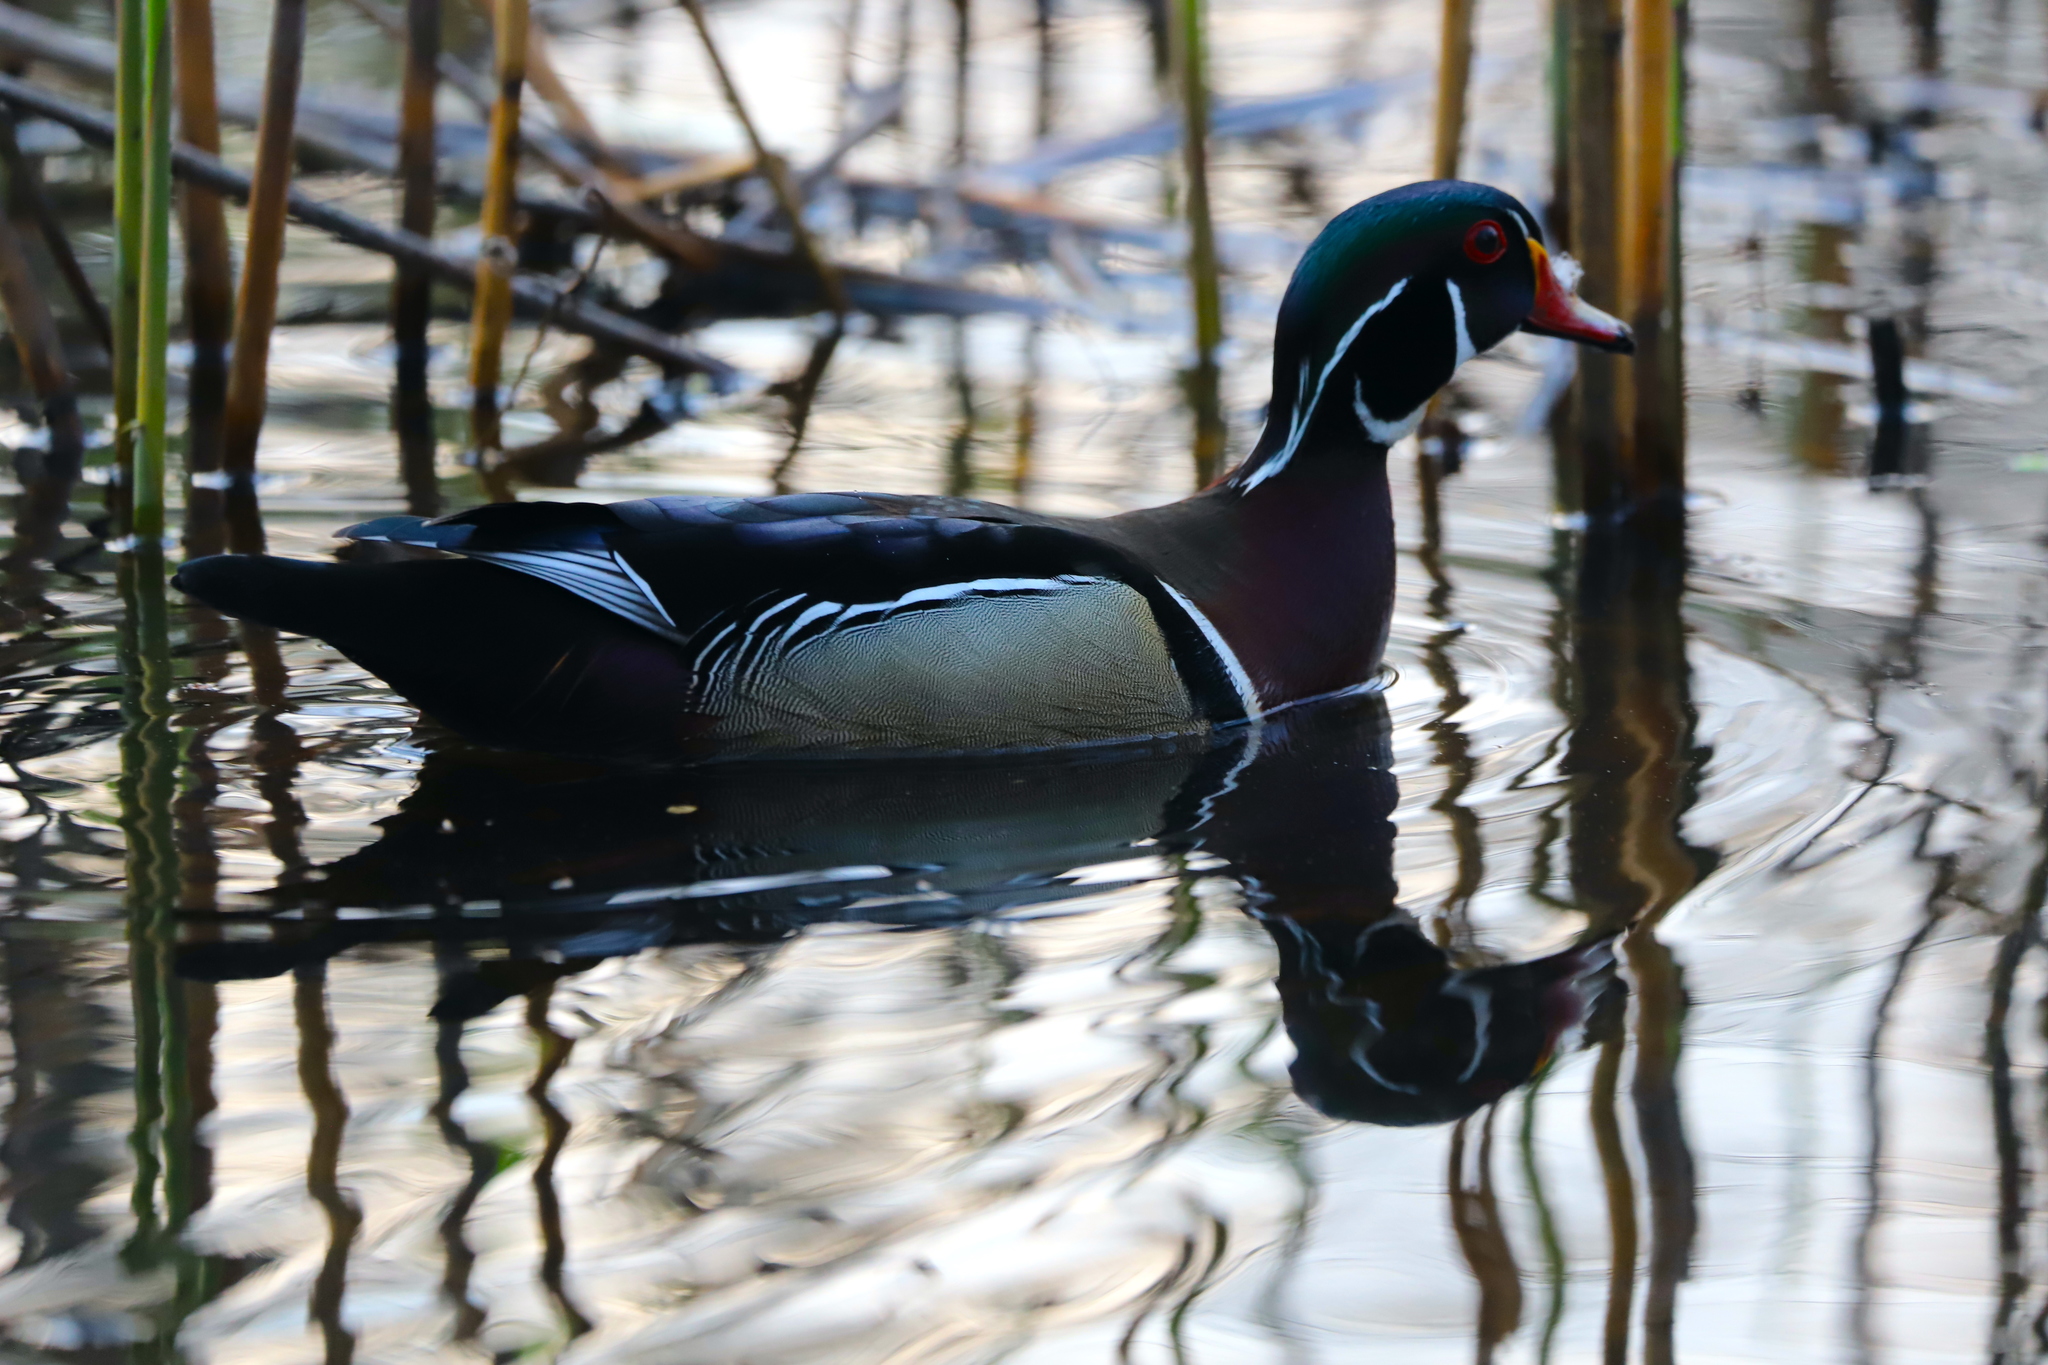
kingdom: Animalia
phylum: Chordata
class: Aves
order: Anseriformes
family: Anatidae
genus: Aix
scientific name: Aix sponsa
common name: Wood duck
